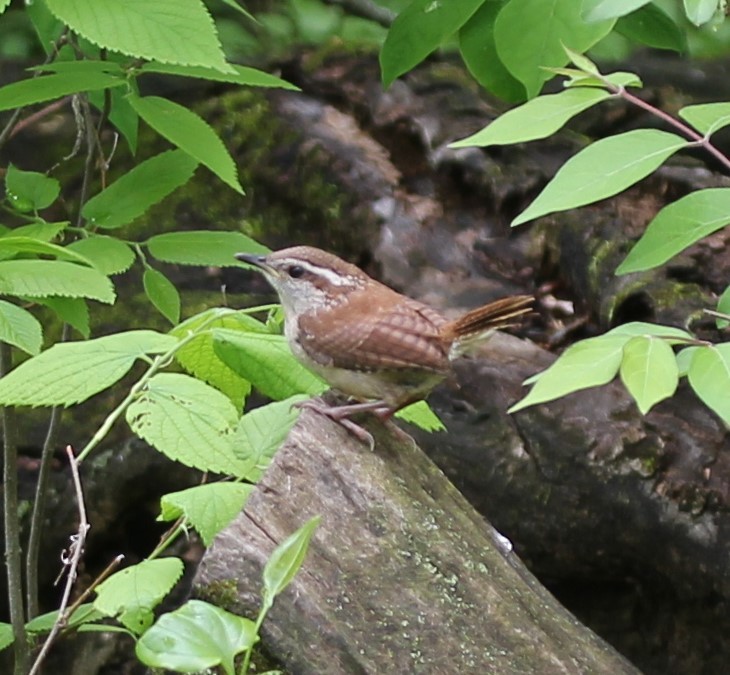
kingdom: Animalia
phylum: Chordata
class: Aves
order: Passeriformes
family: Troglodytidae
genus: Thryothorus
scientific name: Thryothorus ludovicianus
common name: Carolina wren
